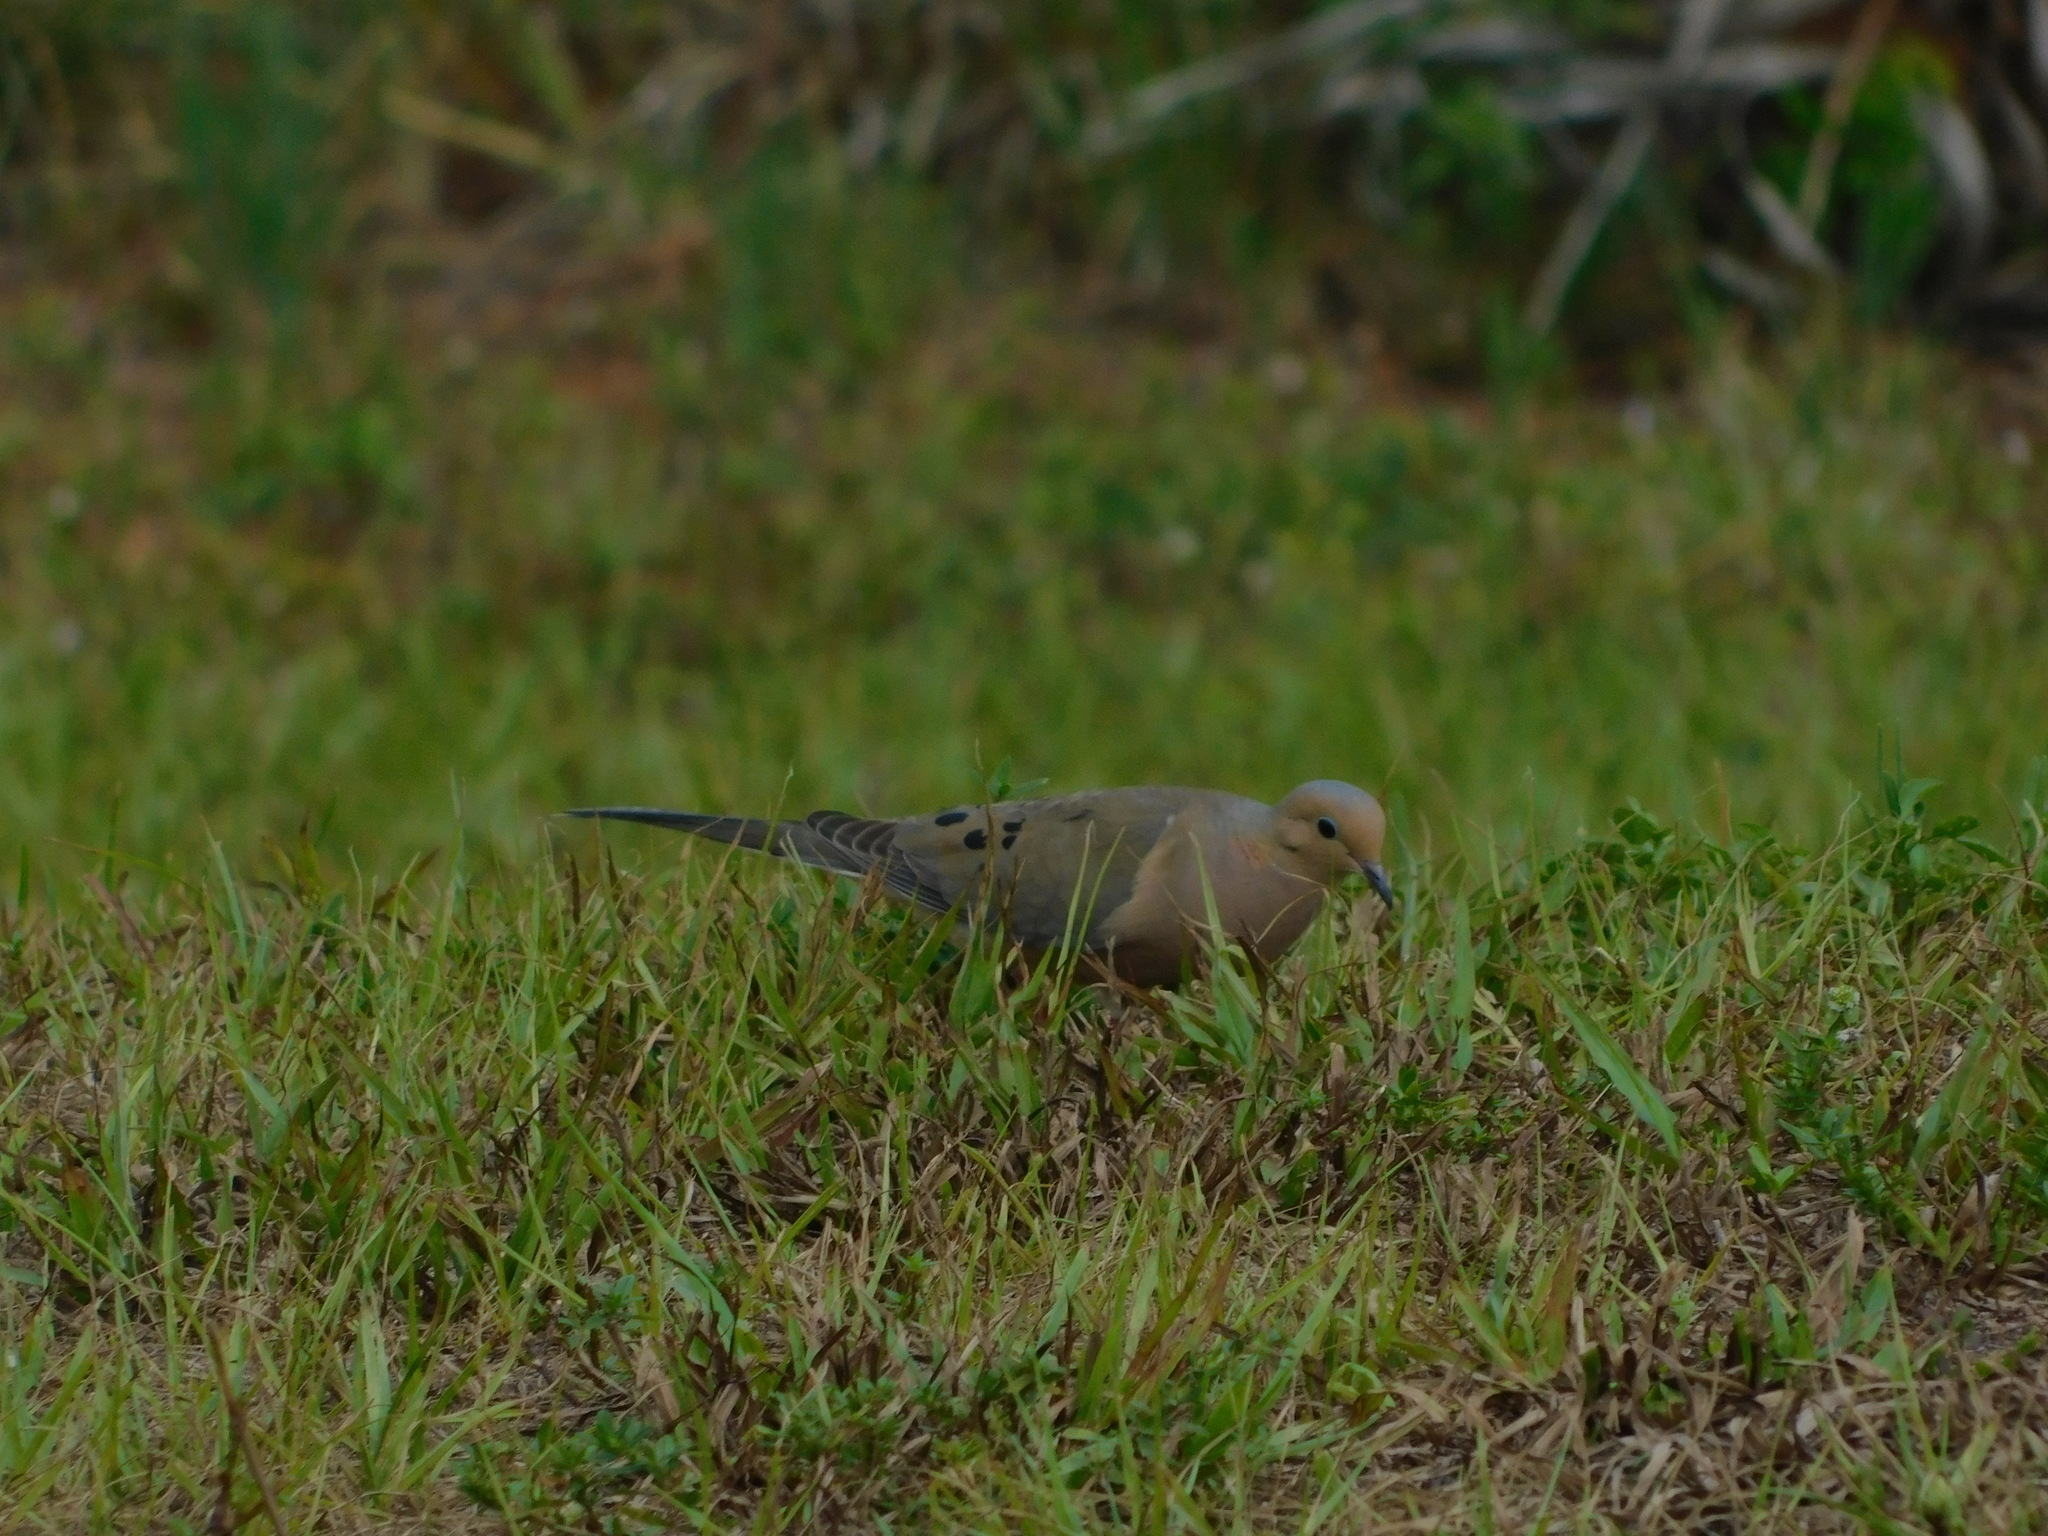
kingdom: Animalia
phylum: Chordata
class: Aves
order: Columbiformes
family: Columbidae
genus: Zenaida
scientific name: Zenaida macroura
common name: Mourning dove
